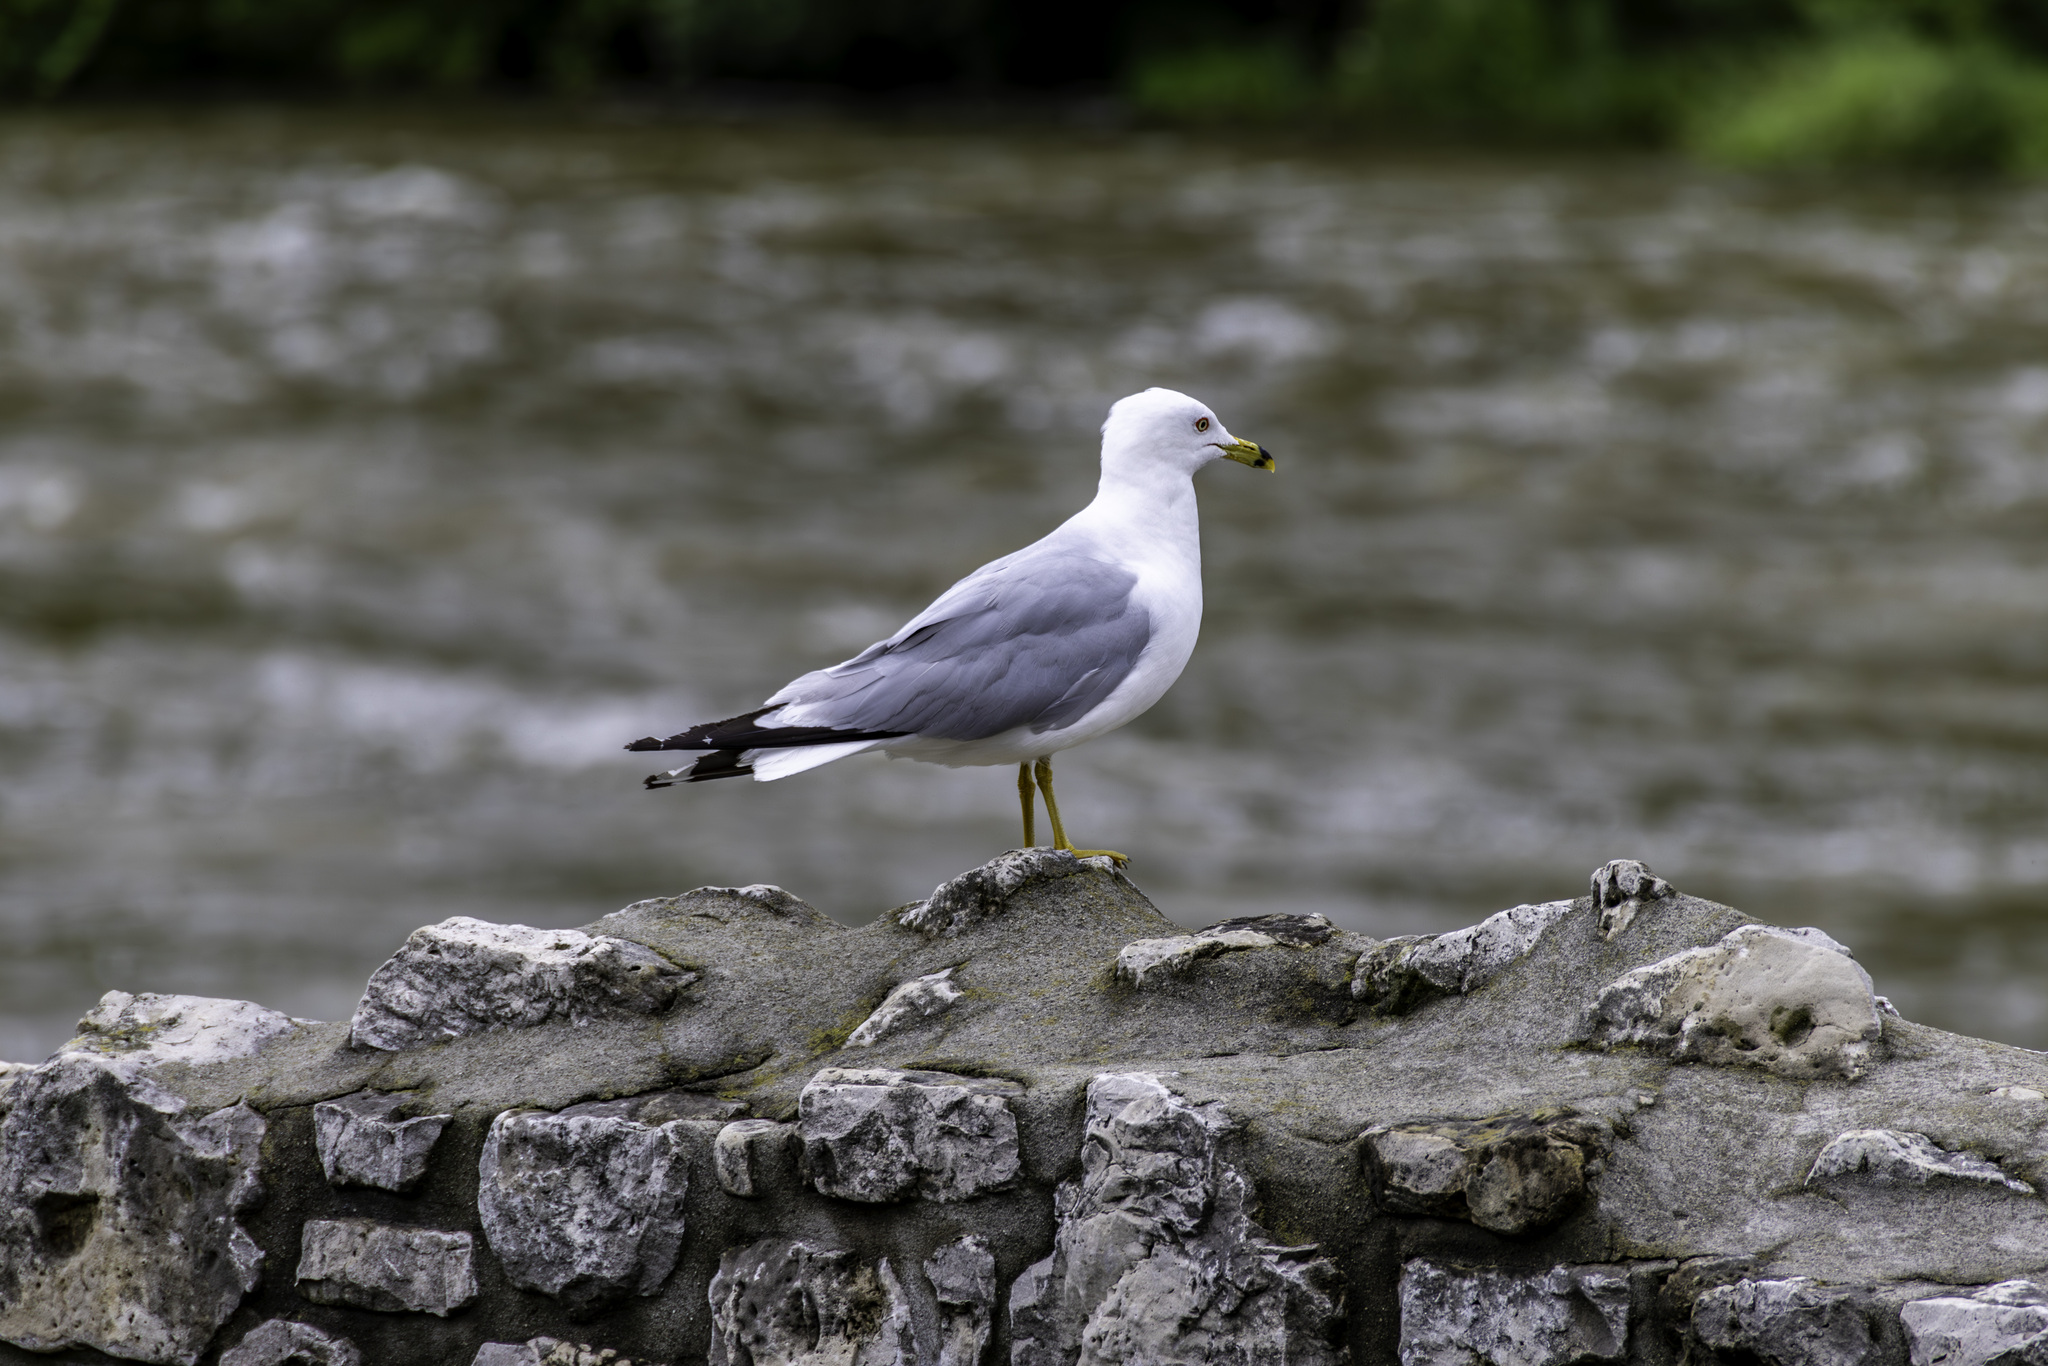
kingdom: Animalia
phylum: Chordata
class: Aves
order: Charadriiformes
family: Laridae
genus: Larus
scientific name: Larus delawarensis
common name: Ring-billed gull
